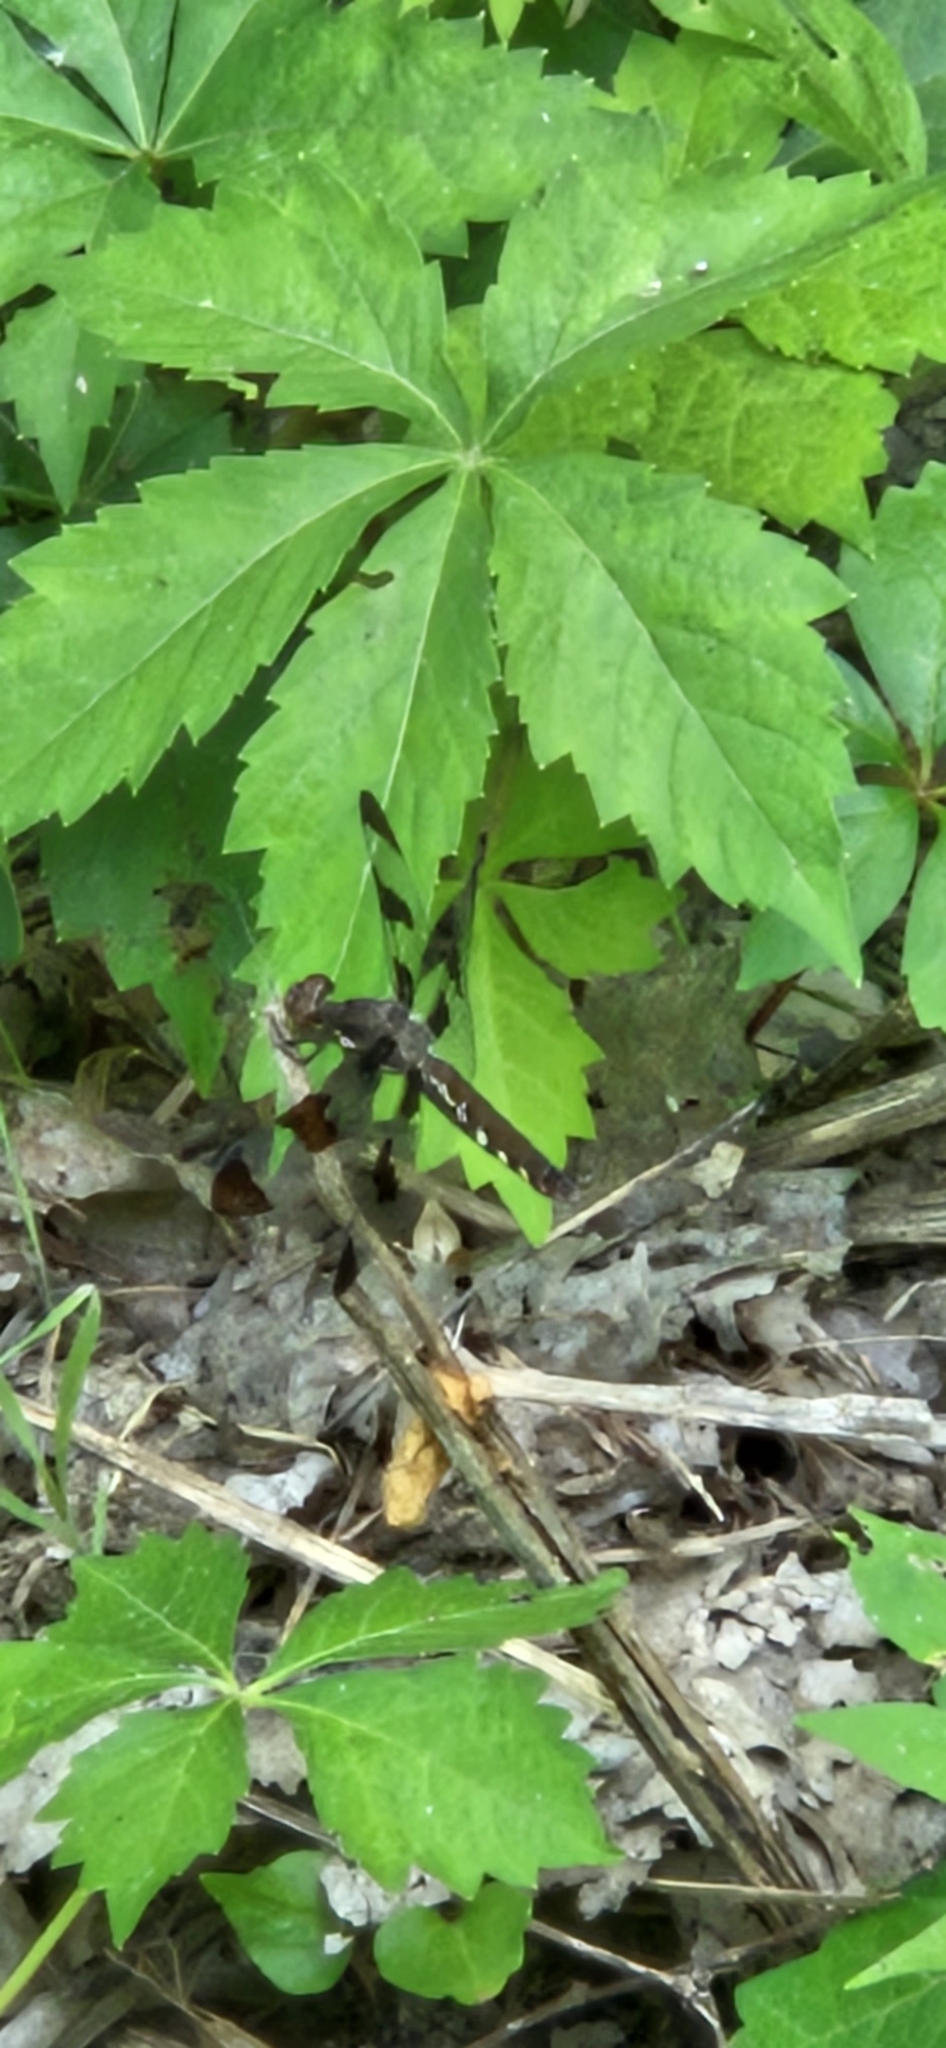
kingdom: Animalia
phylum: Arthropoda
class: Insecta
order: Odonata
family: Libellulidae
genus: Plathemis
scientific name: Plathemis lydia
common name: Common whitetail
